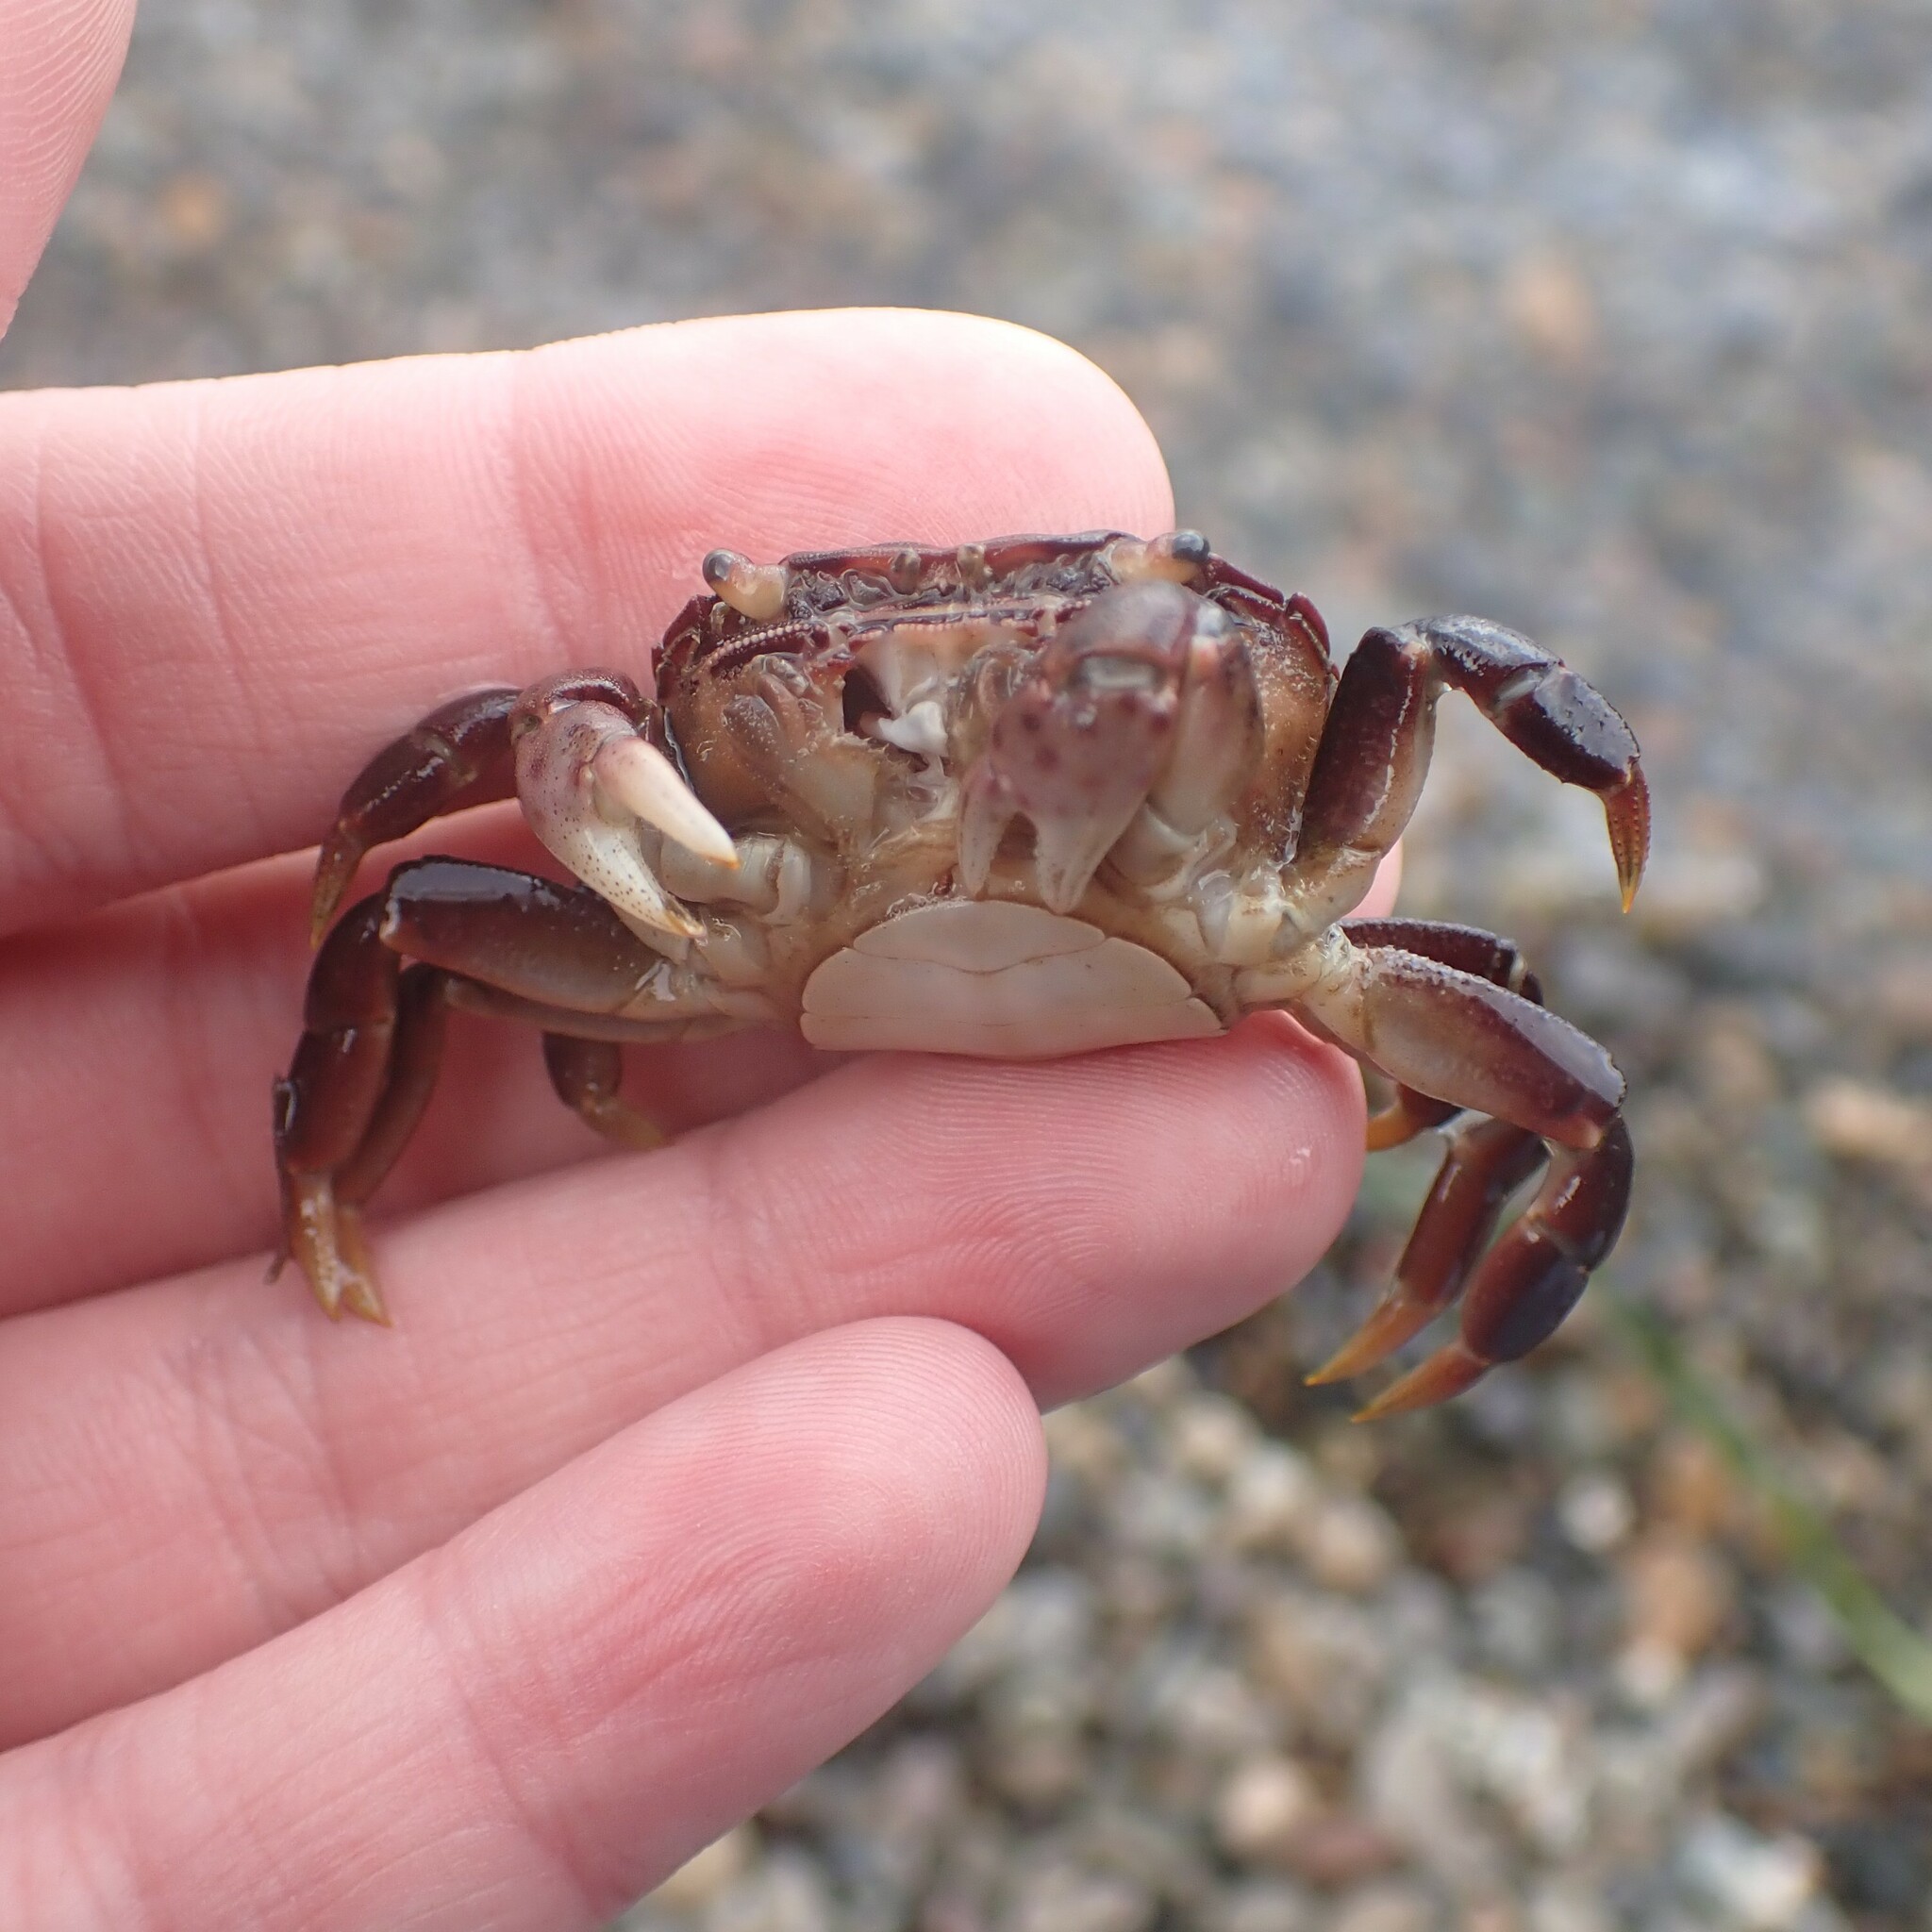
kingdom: Animalia
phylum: Arthropoda
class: Malacostraca
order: Decapoda
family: Varunidae
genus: Hemigrapsus
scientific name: Hemigrapsus nudus
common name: Purple shore crab
